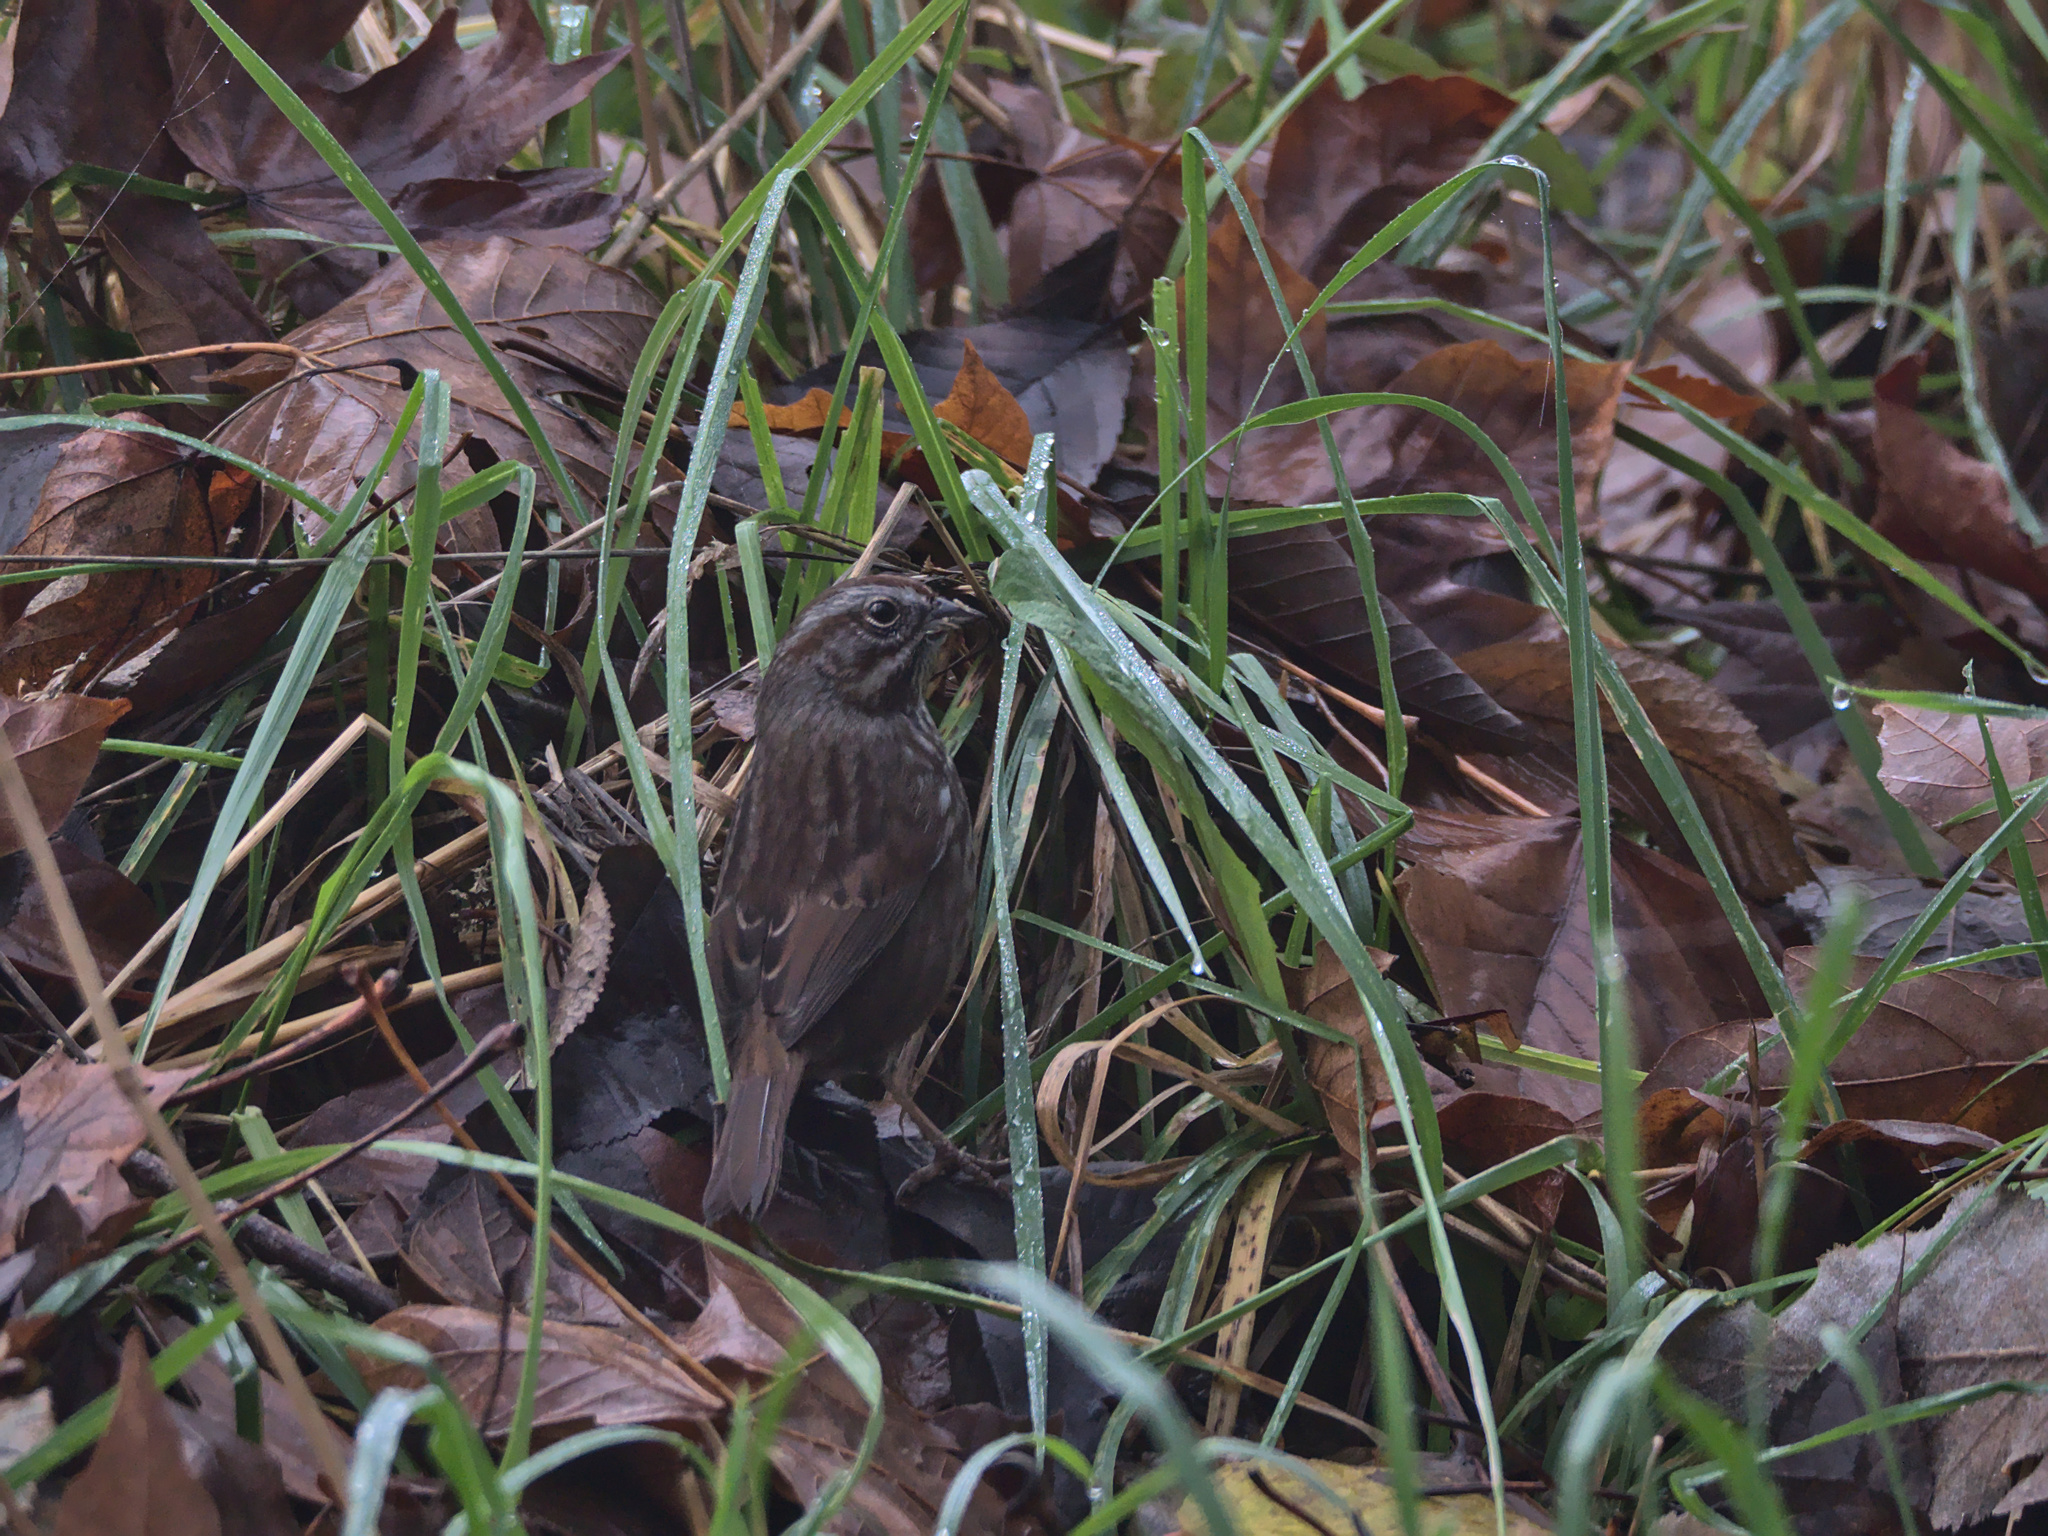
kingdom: Animalia
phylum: Chordata
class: Aves
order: Passeriformes
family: Passerellidae
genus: Melospiza
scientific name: Melospiza melodia
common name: Song sparrow
